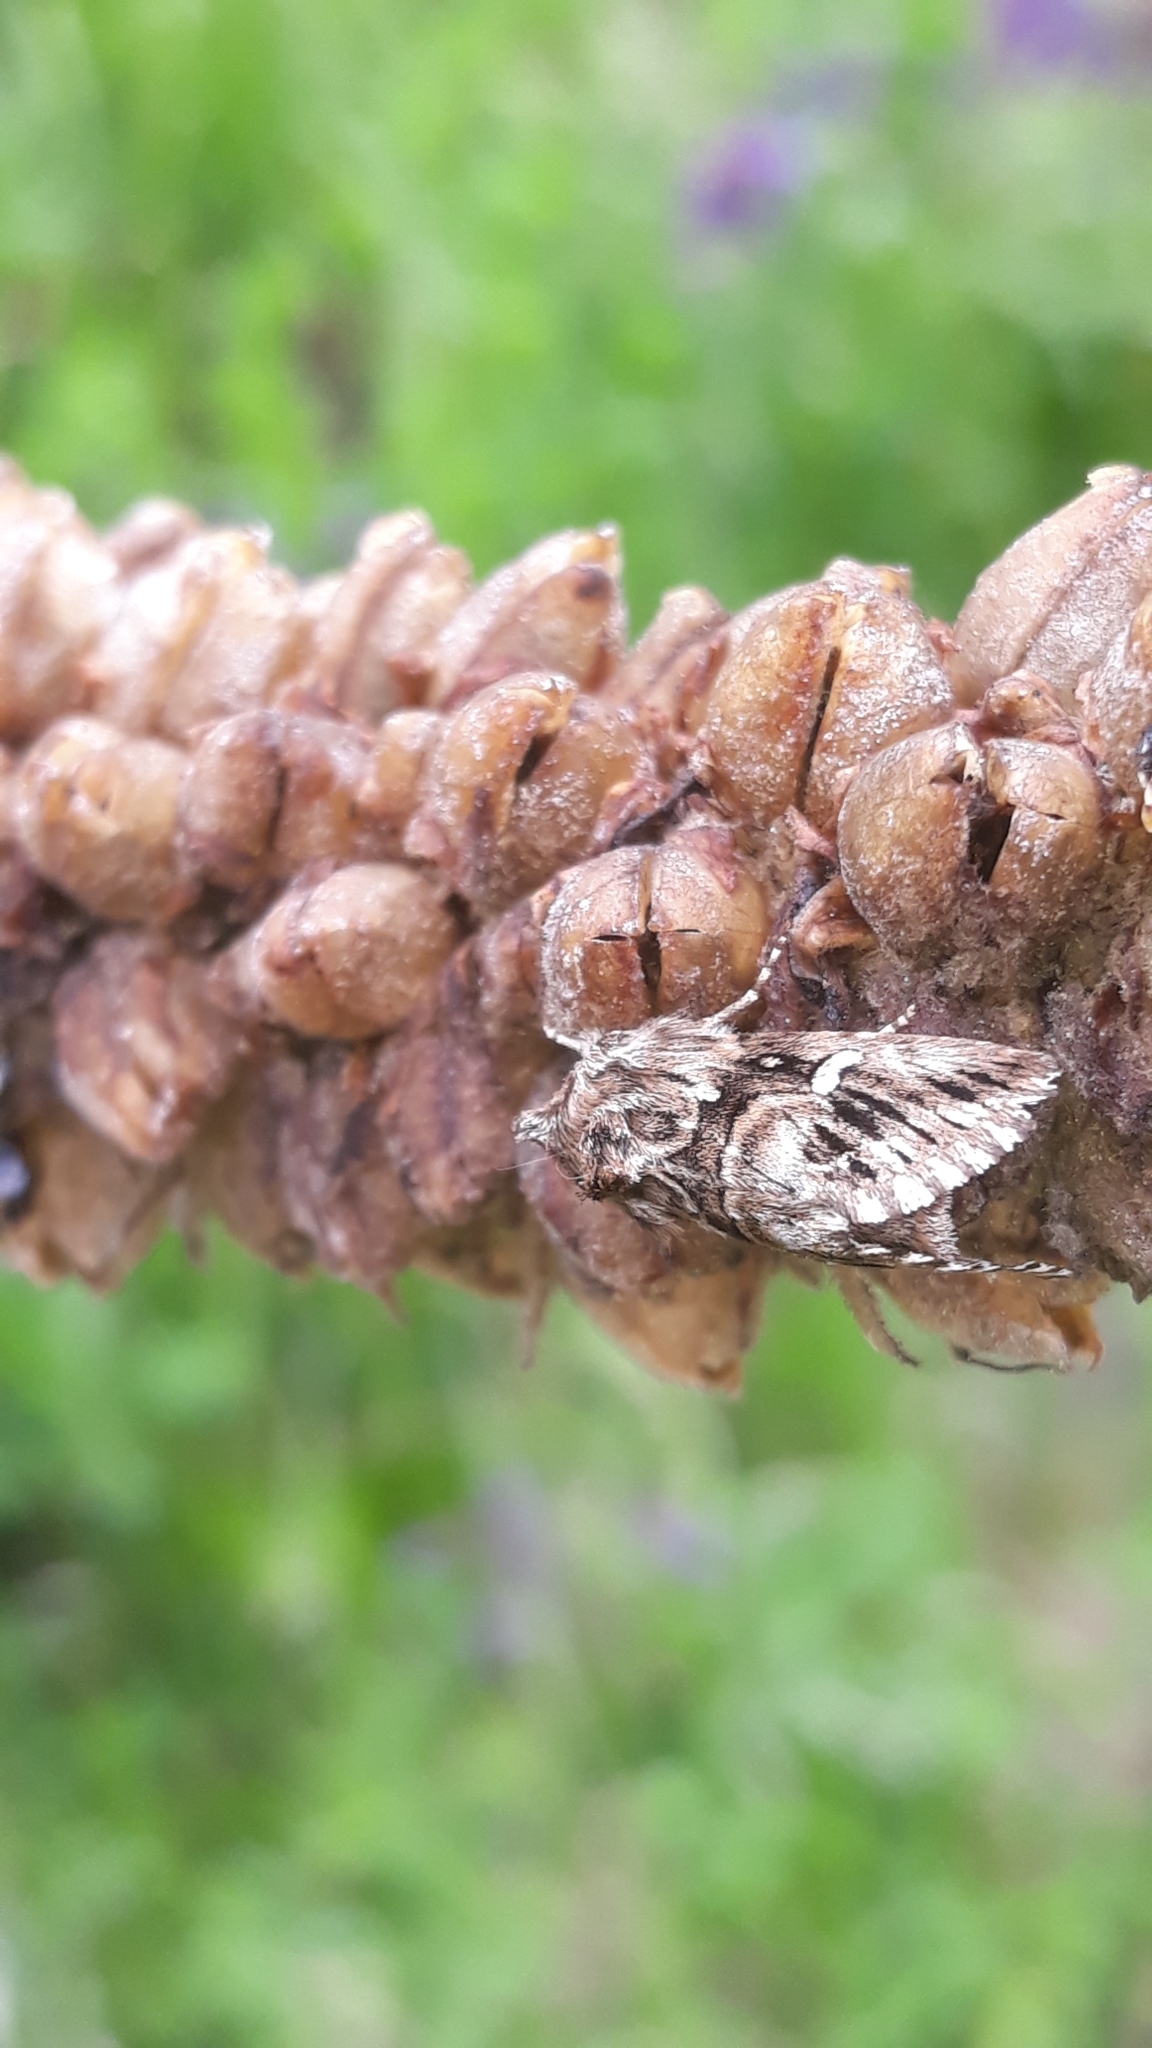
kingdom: Animalia
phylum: Arthropoda
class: Insecta
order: Lepidoptera
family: Noctuidae
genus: Calophasia
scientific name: Calophasia lunula
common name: Toadflax brocade
